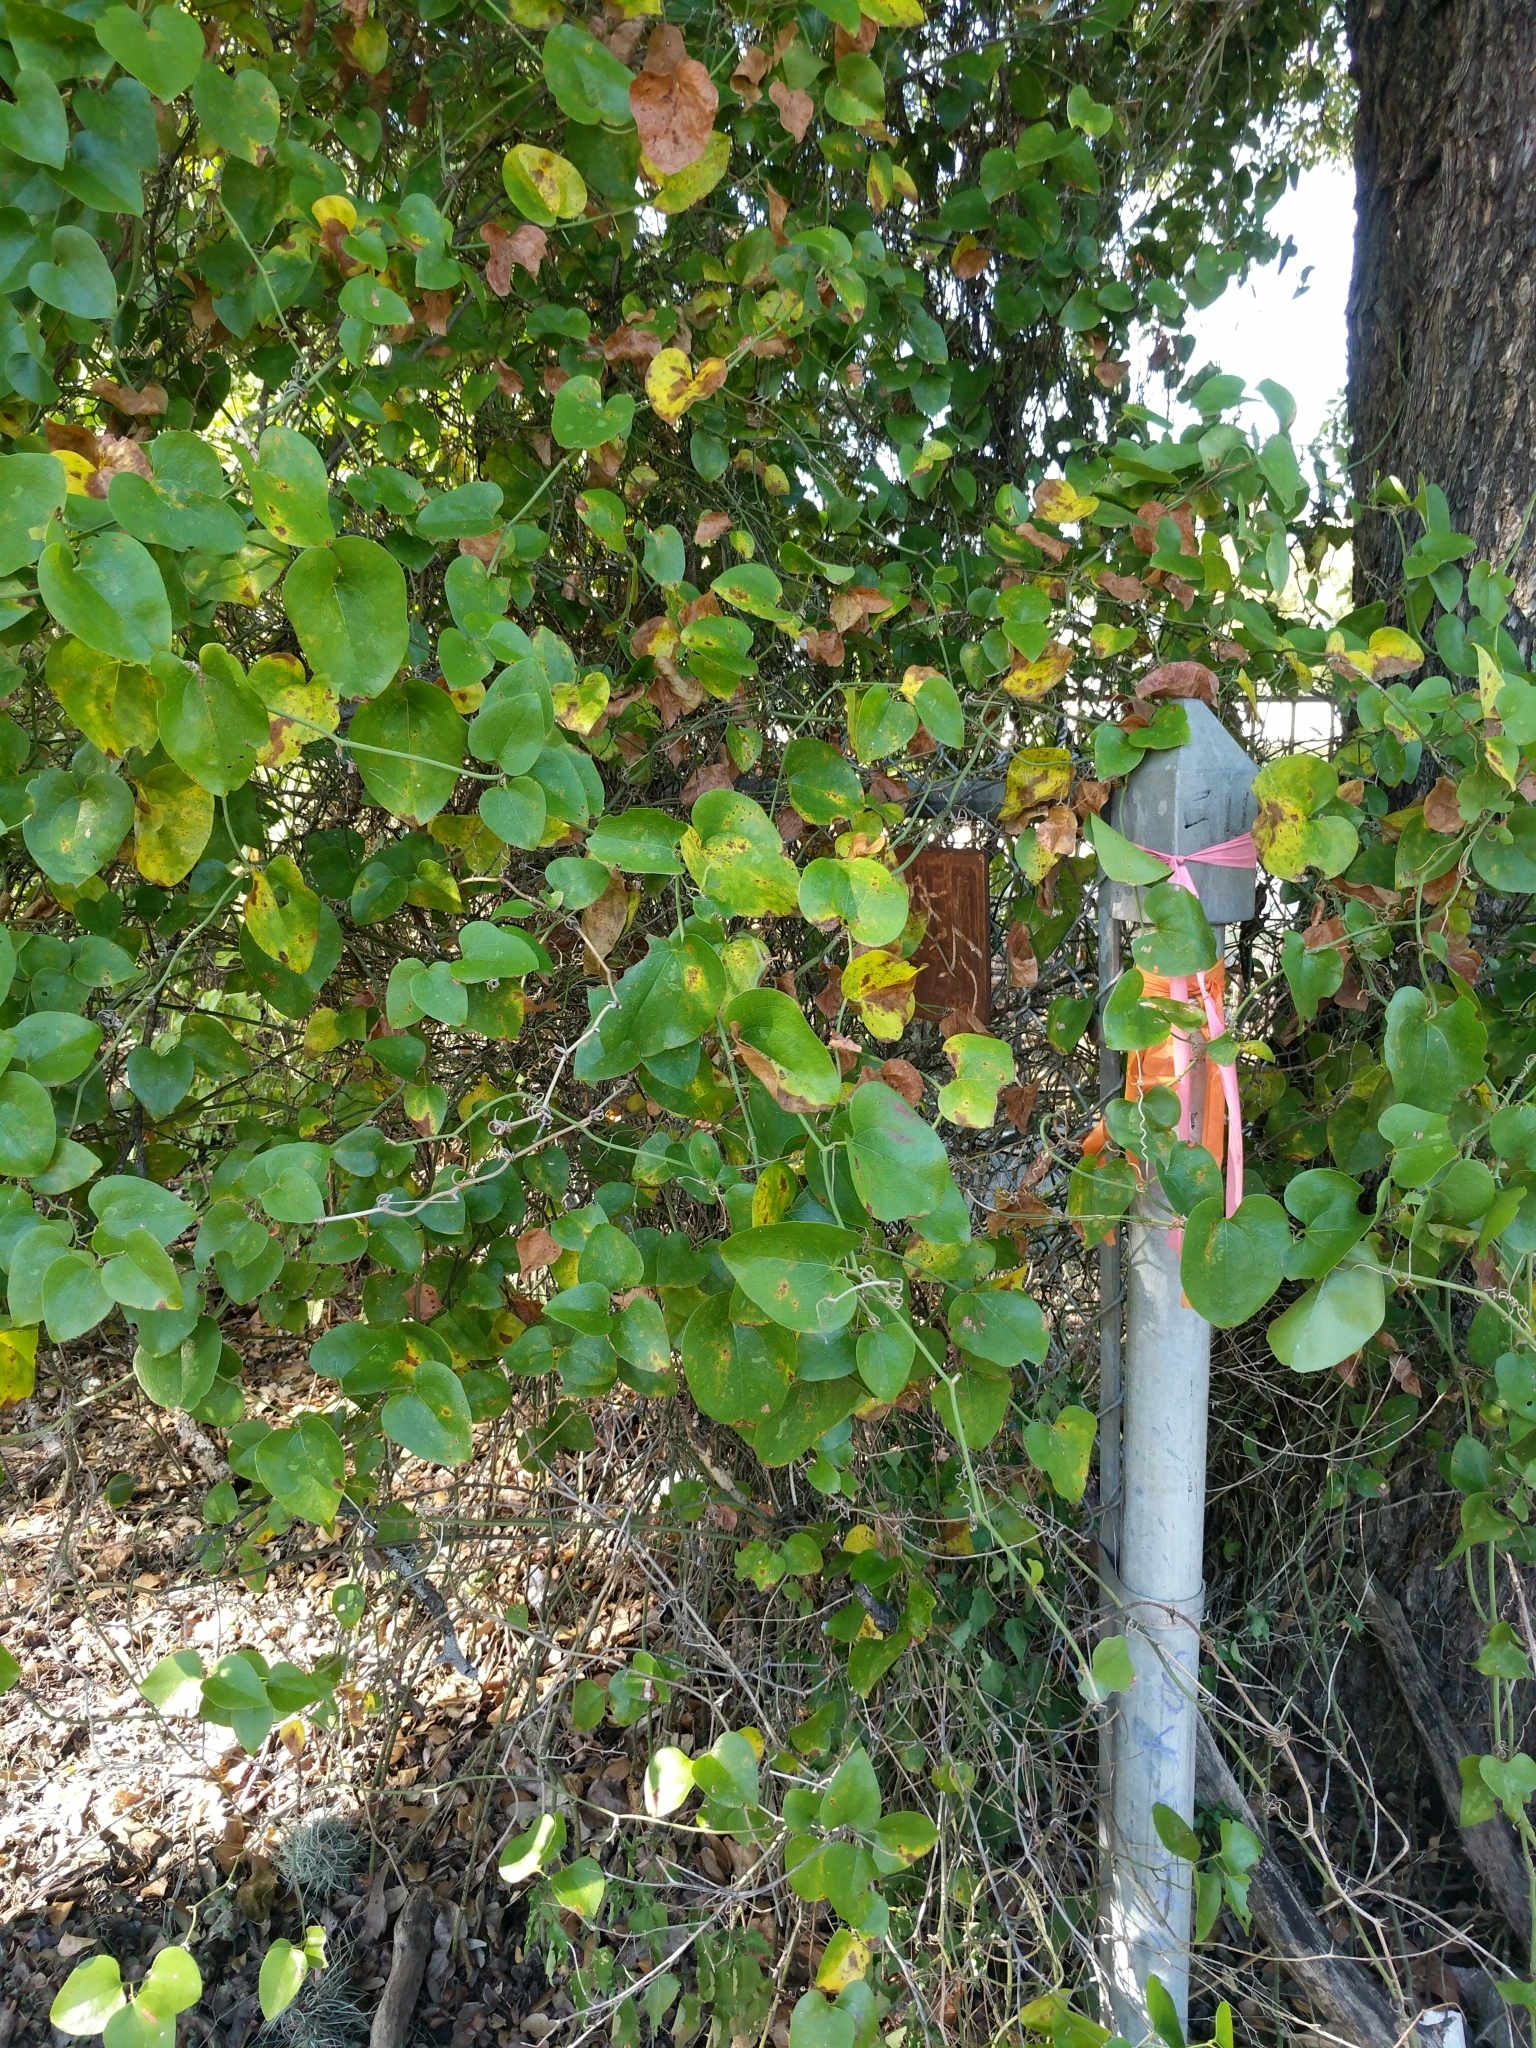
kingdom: Plantae
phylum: Tracheophyta
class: Liliopsida
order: Liliales
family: Smilacaceae
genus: Smilax
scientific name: Smilax bona-nox
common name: Catbrier
